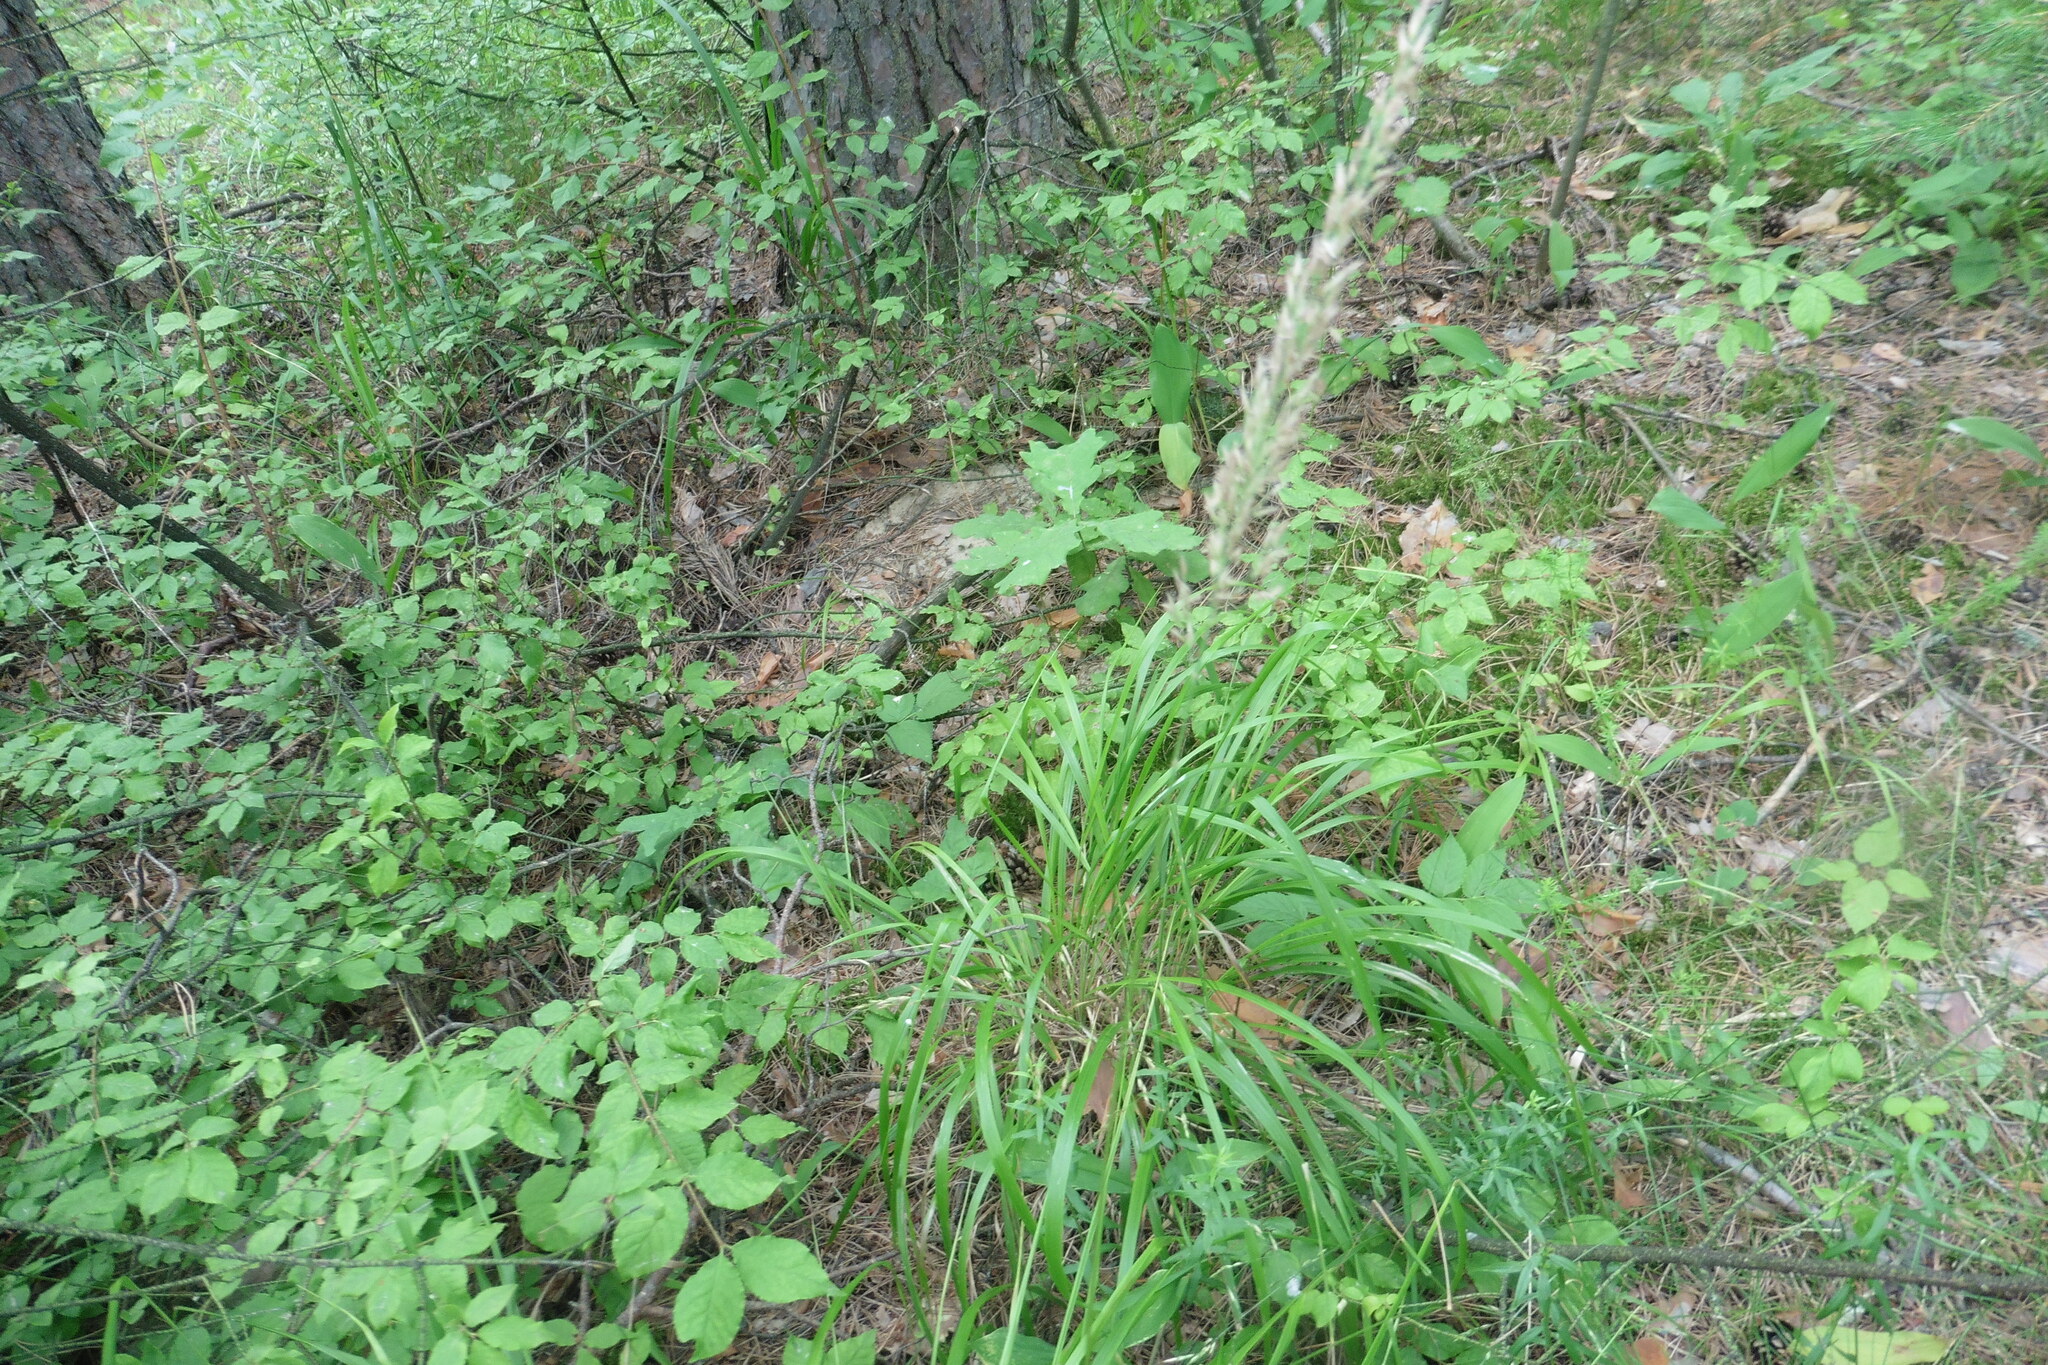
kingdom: Plantae
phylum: Tracheophyta
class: Liliopsida
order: Poales
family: Poaceae
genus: Calamagrostis
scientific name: Calamagrostis arundinacea
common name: Metskastik
